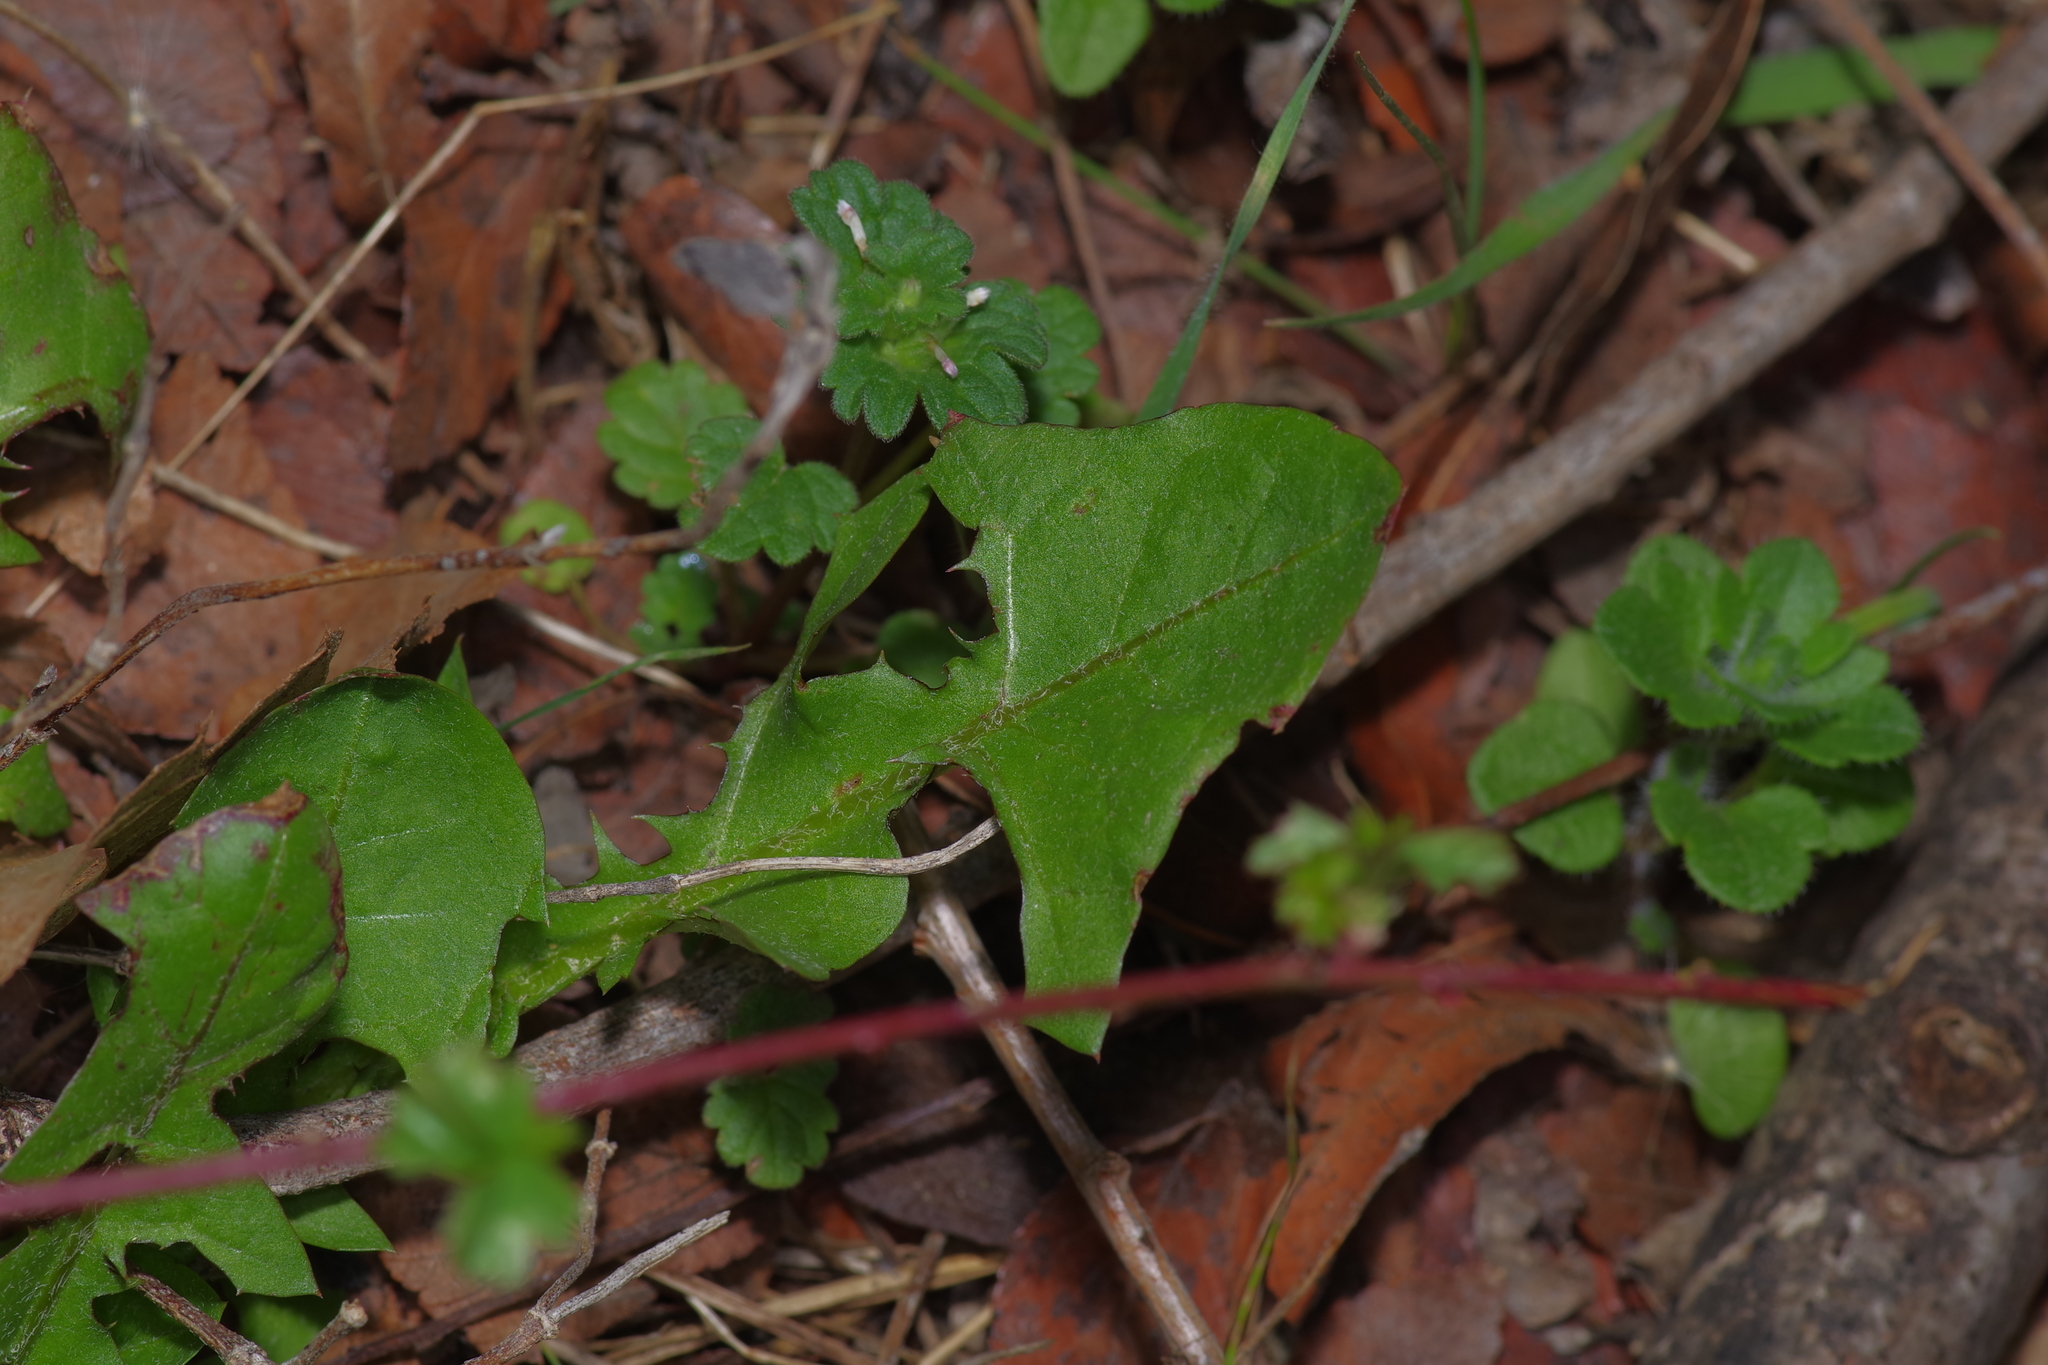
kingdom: Plantae
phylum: Tracheophyta
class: Magnoliopsida
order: Asterales
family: Asteraceae
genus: Taraxacum
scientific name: Taraxacum officinale
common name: Common dandelion
